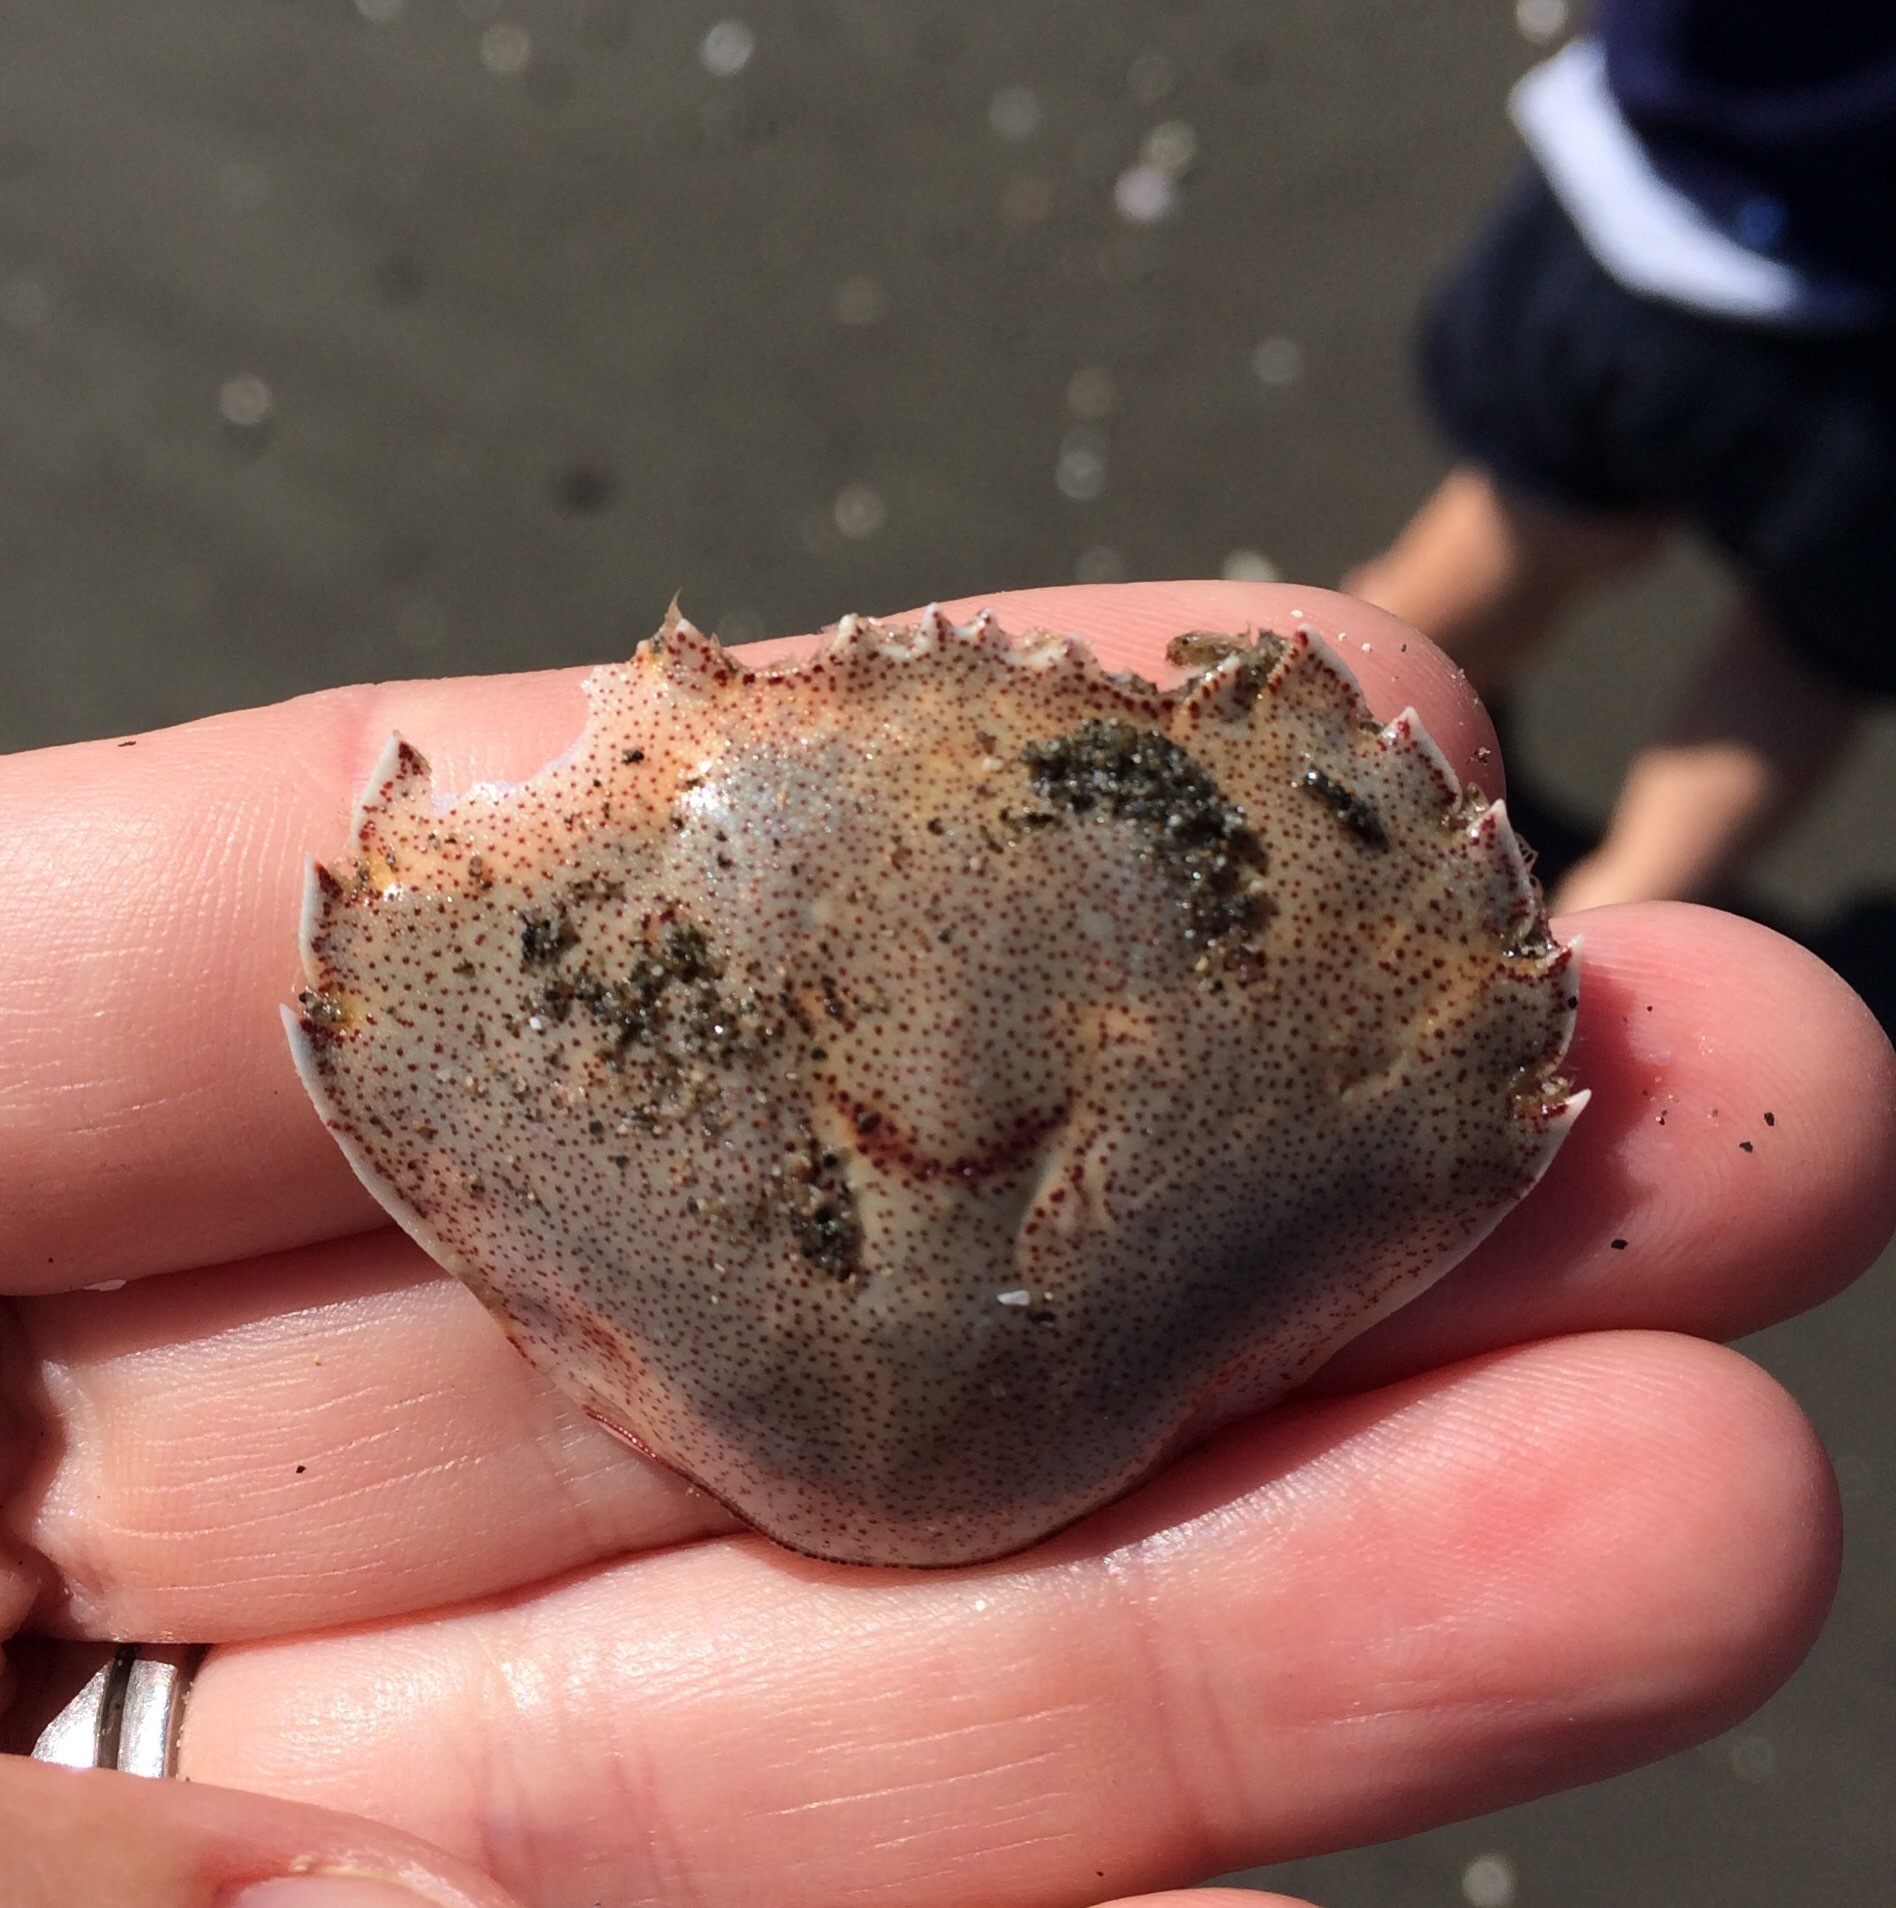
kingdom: Animalia
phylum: Arthropoda
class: Malacostraca
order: Decapoda
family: Ovalipidae
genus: Ovalipes
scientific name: Ovalipes catharus
